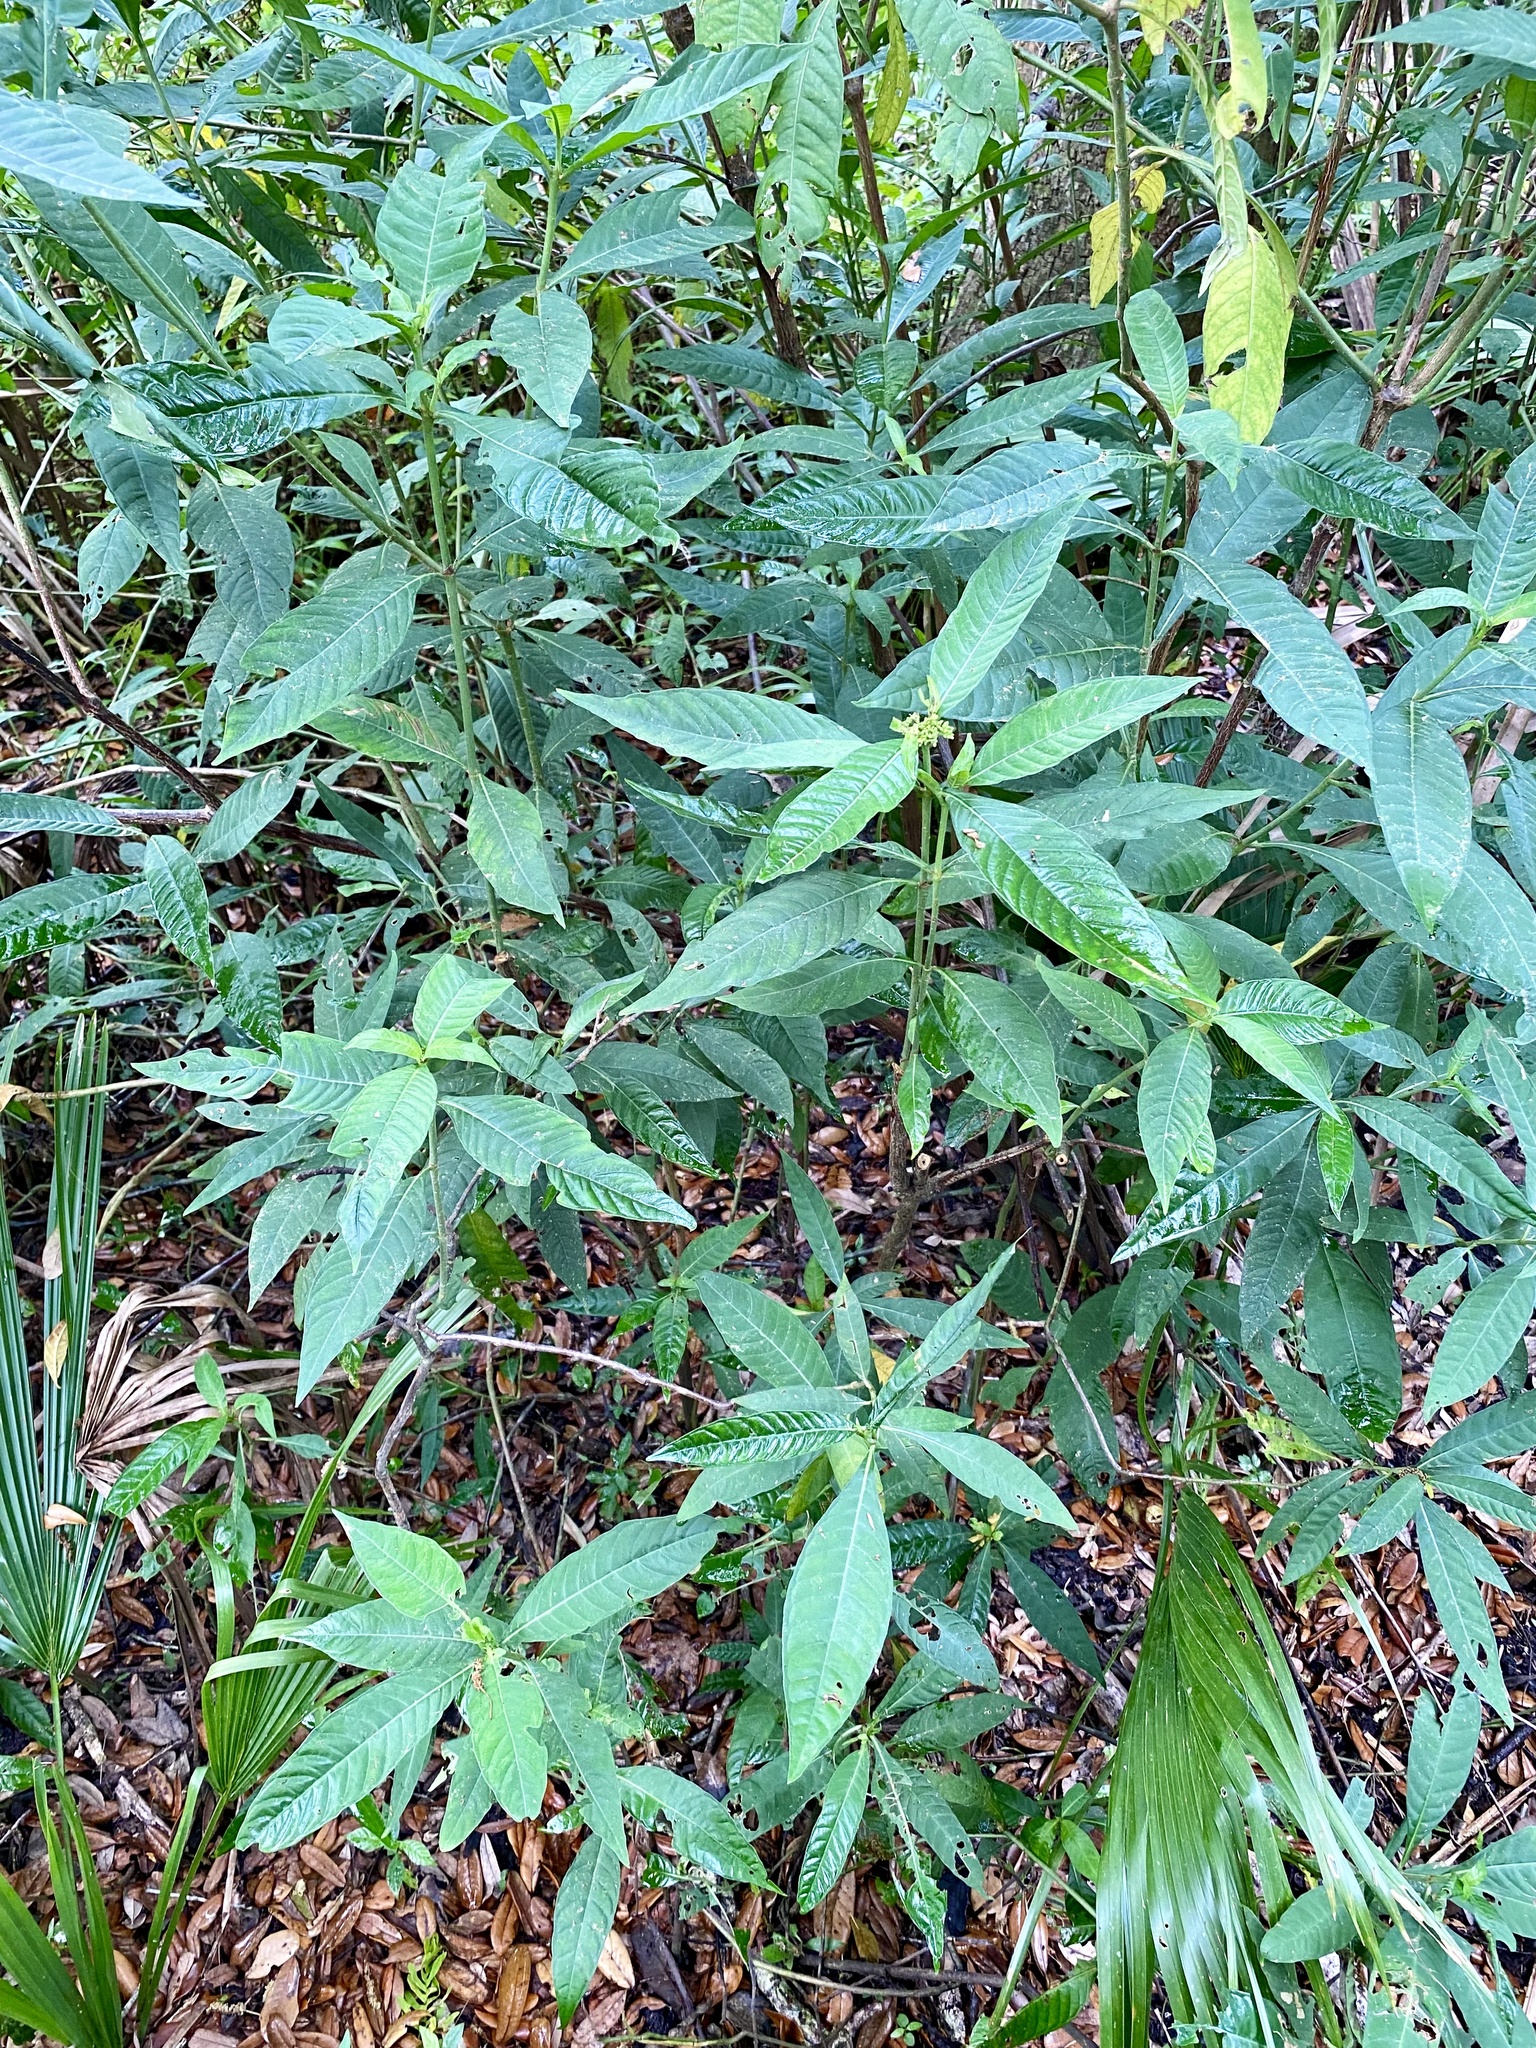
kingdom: Plantae
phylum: Tracheophyta
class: Magnoliopsida
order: Gentianales
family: Rubiaceae
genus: Psychotria
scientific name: Psychotria tenuifolia
